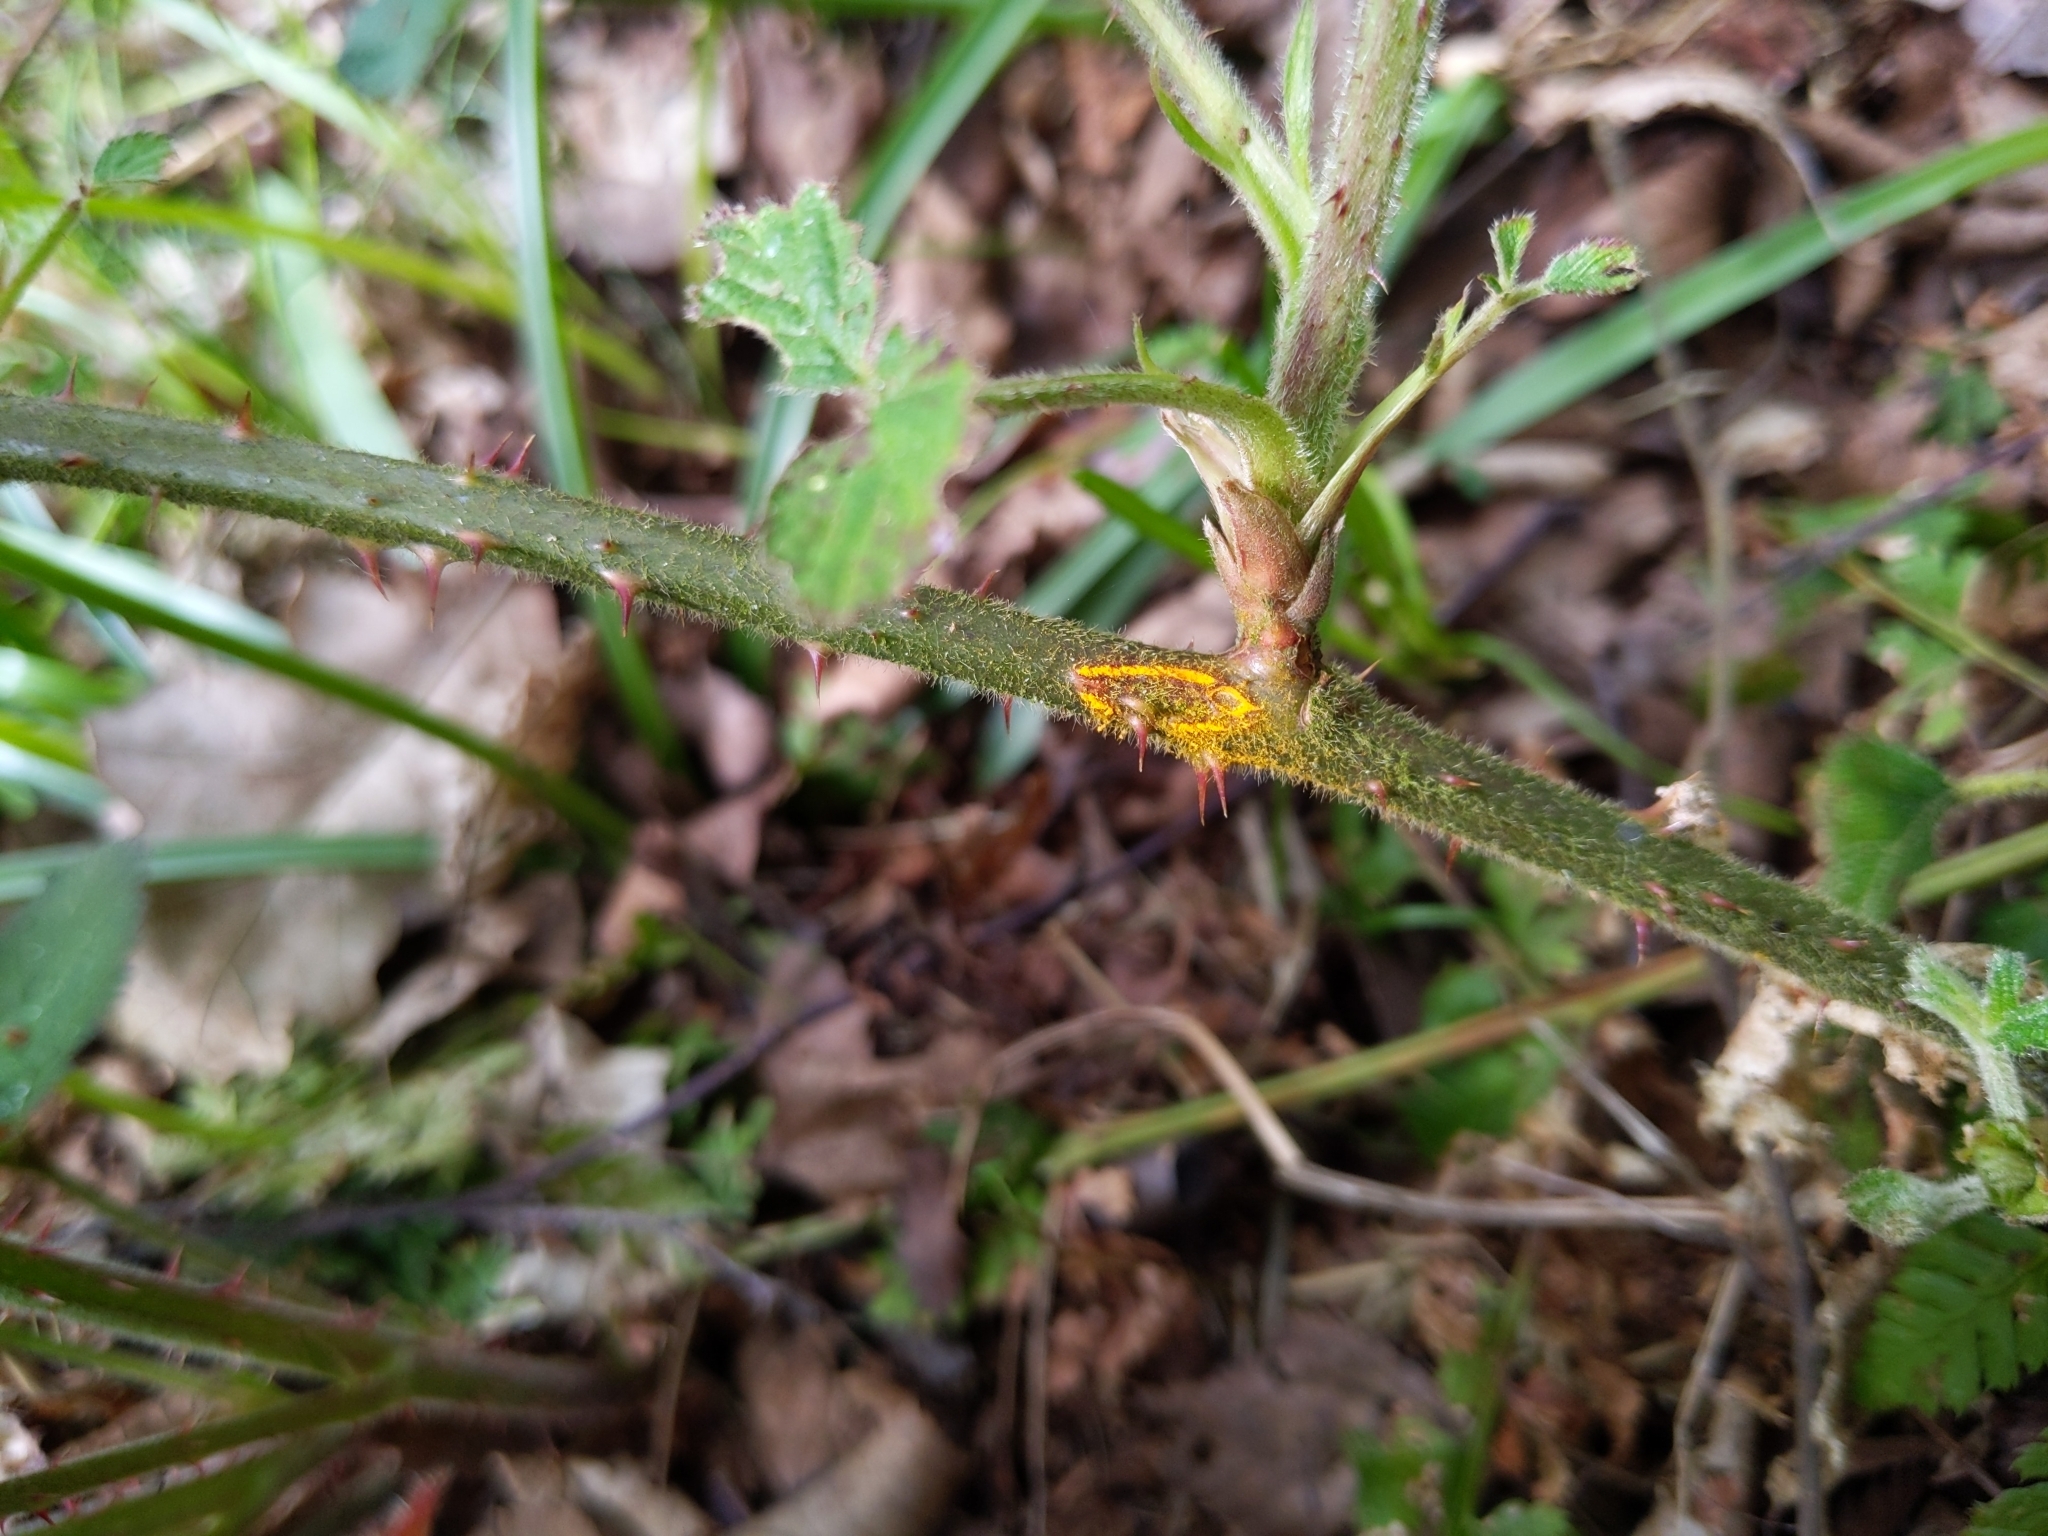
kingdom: Fungi
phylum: Basidiomycota
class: Pucciniomycetes
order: Pucciniales
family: Phragmidiaceae
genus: Kuehneola
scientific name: Kuehneola uredinis
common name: Bramble stem rust
